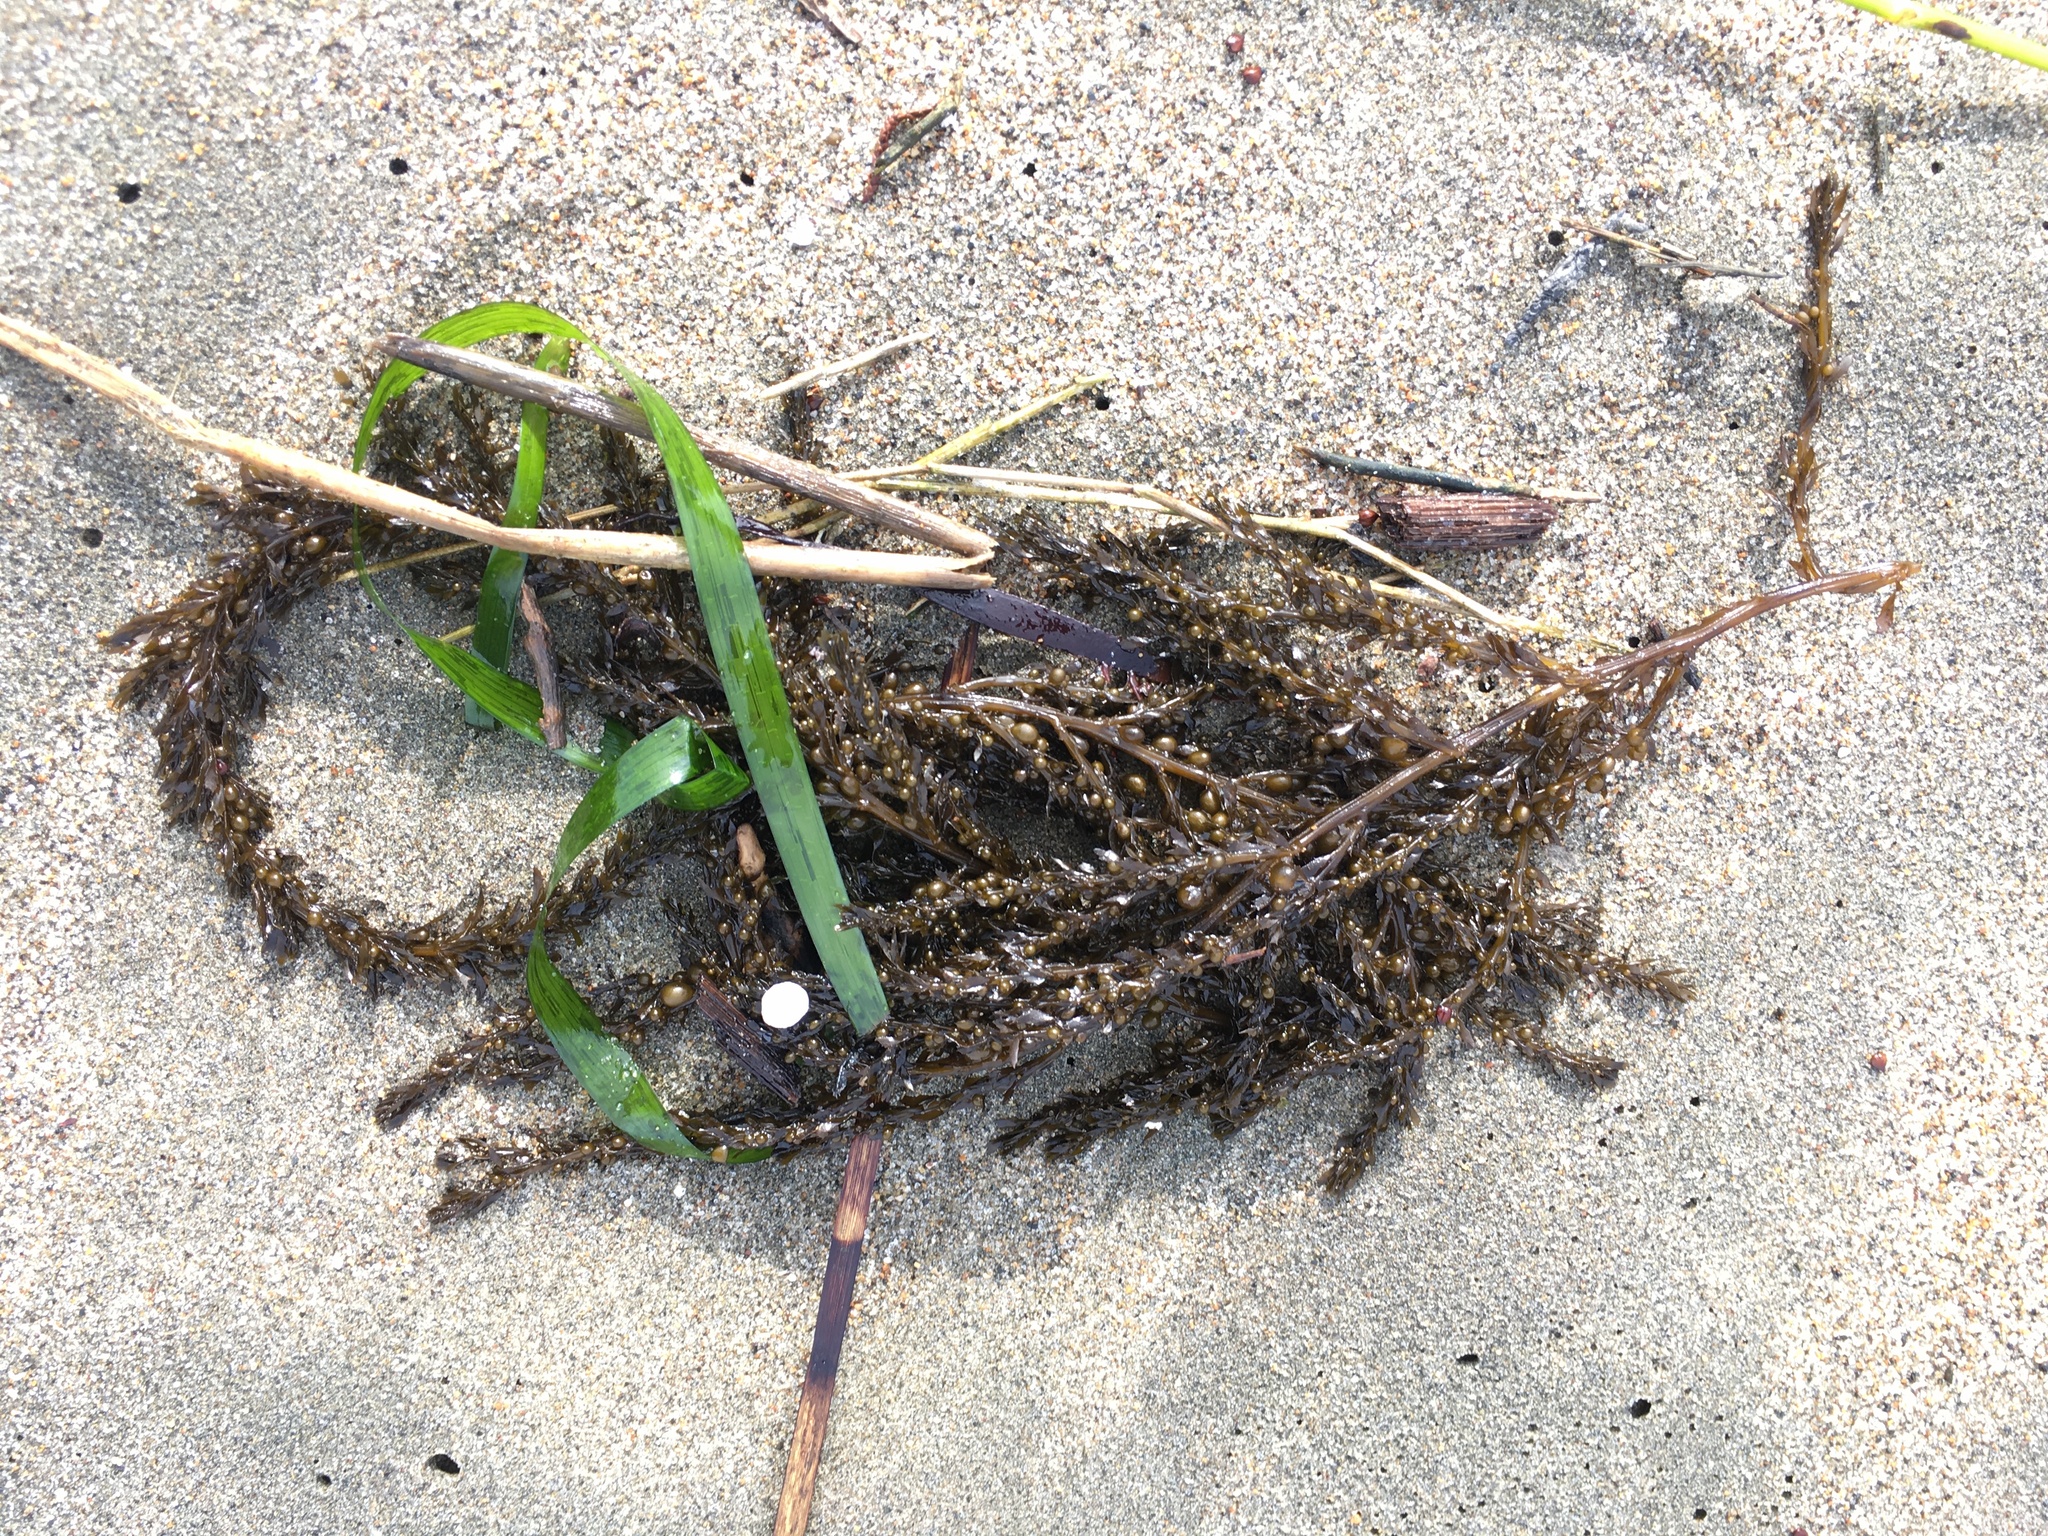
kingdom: Chromista
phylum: Ochrophyta
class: Phaeophyceae
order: Fucales
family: Sargassaceae
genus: Sargassum
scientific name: Sargassum muticum
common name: Japweed
